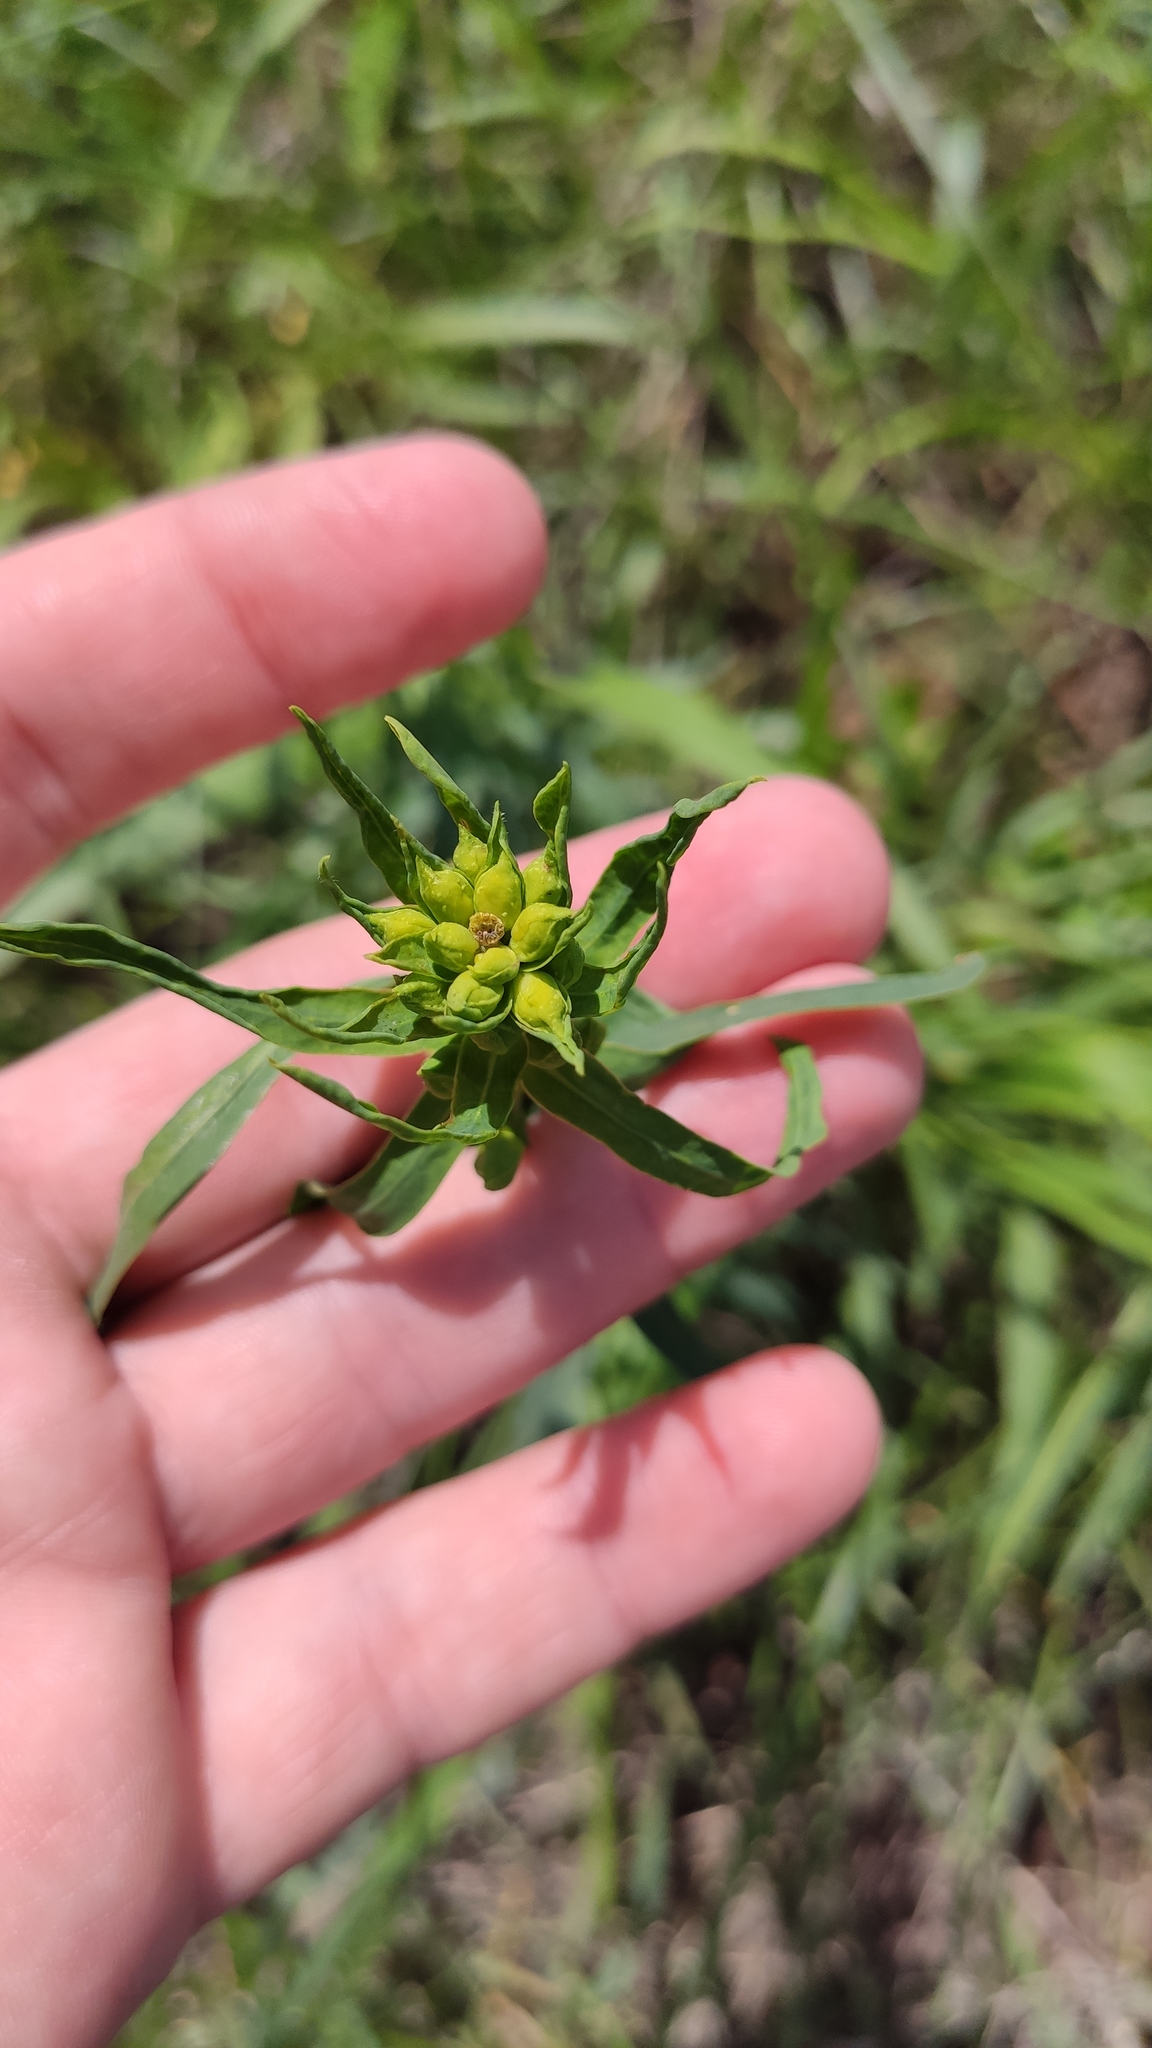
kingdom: Plantae
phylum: Tracheophyta
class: Magnoliopsida
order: Malpighiales
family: Euphorbiaceae
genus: Euphorbia
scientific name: Euphorbia virgata
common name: Leafy spurge
